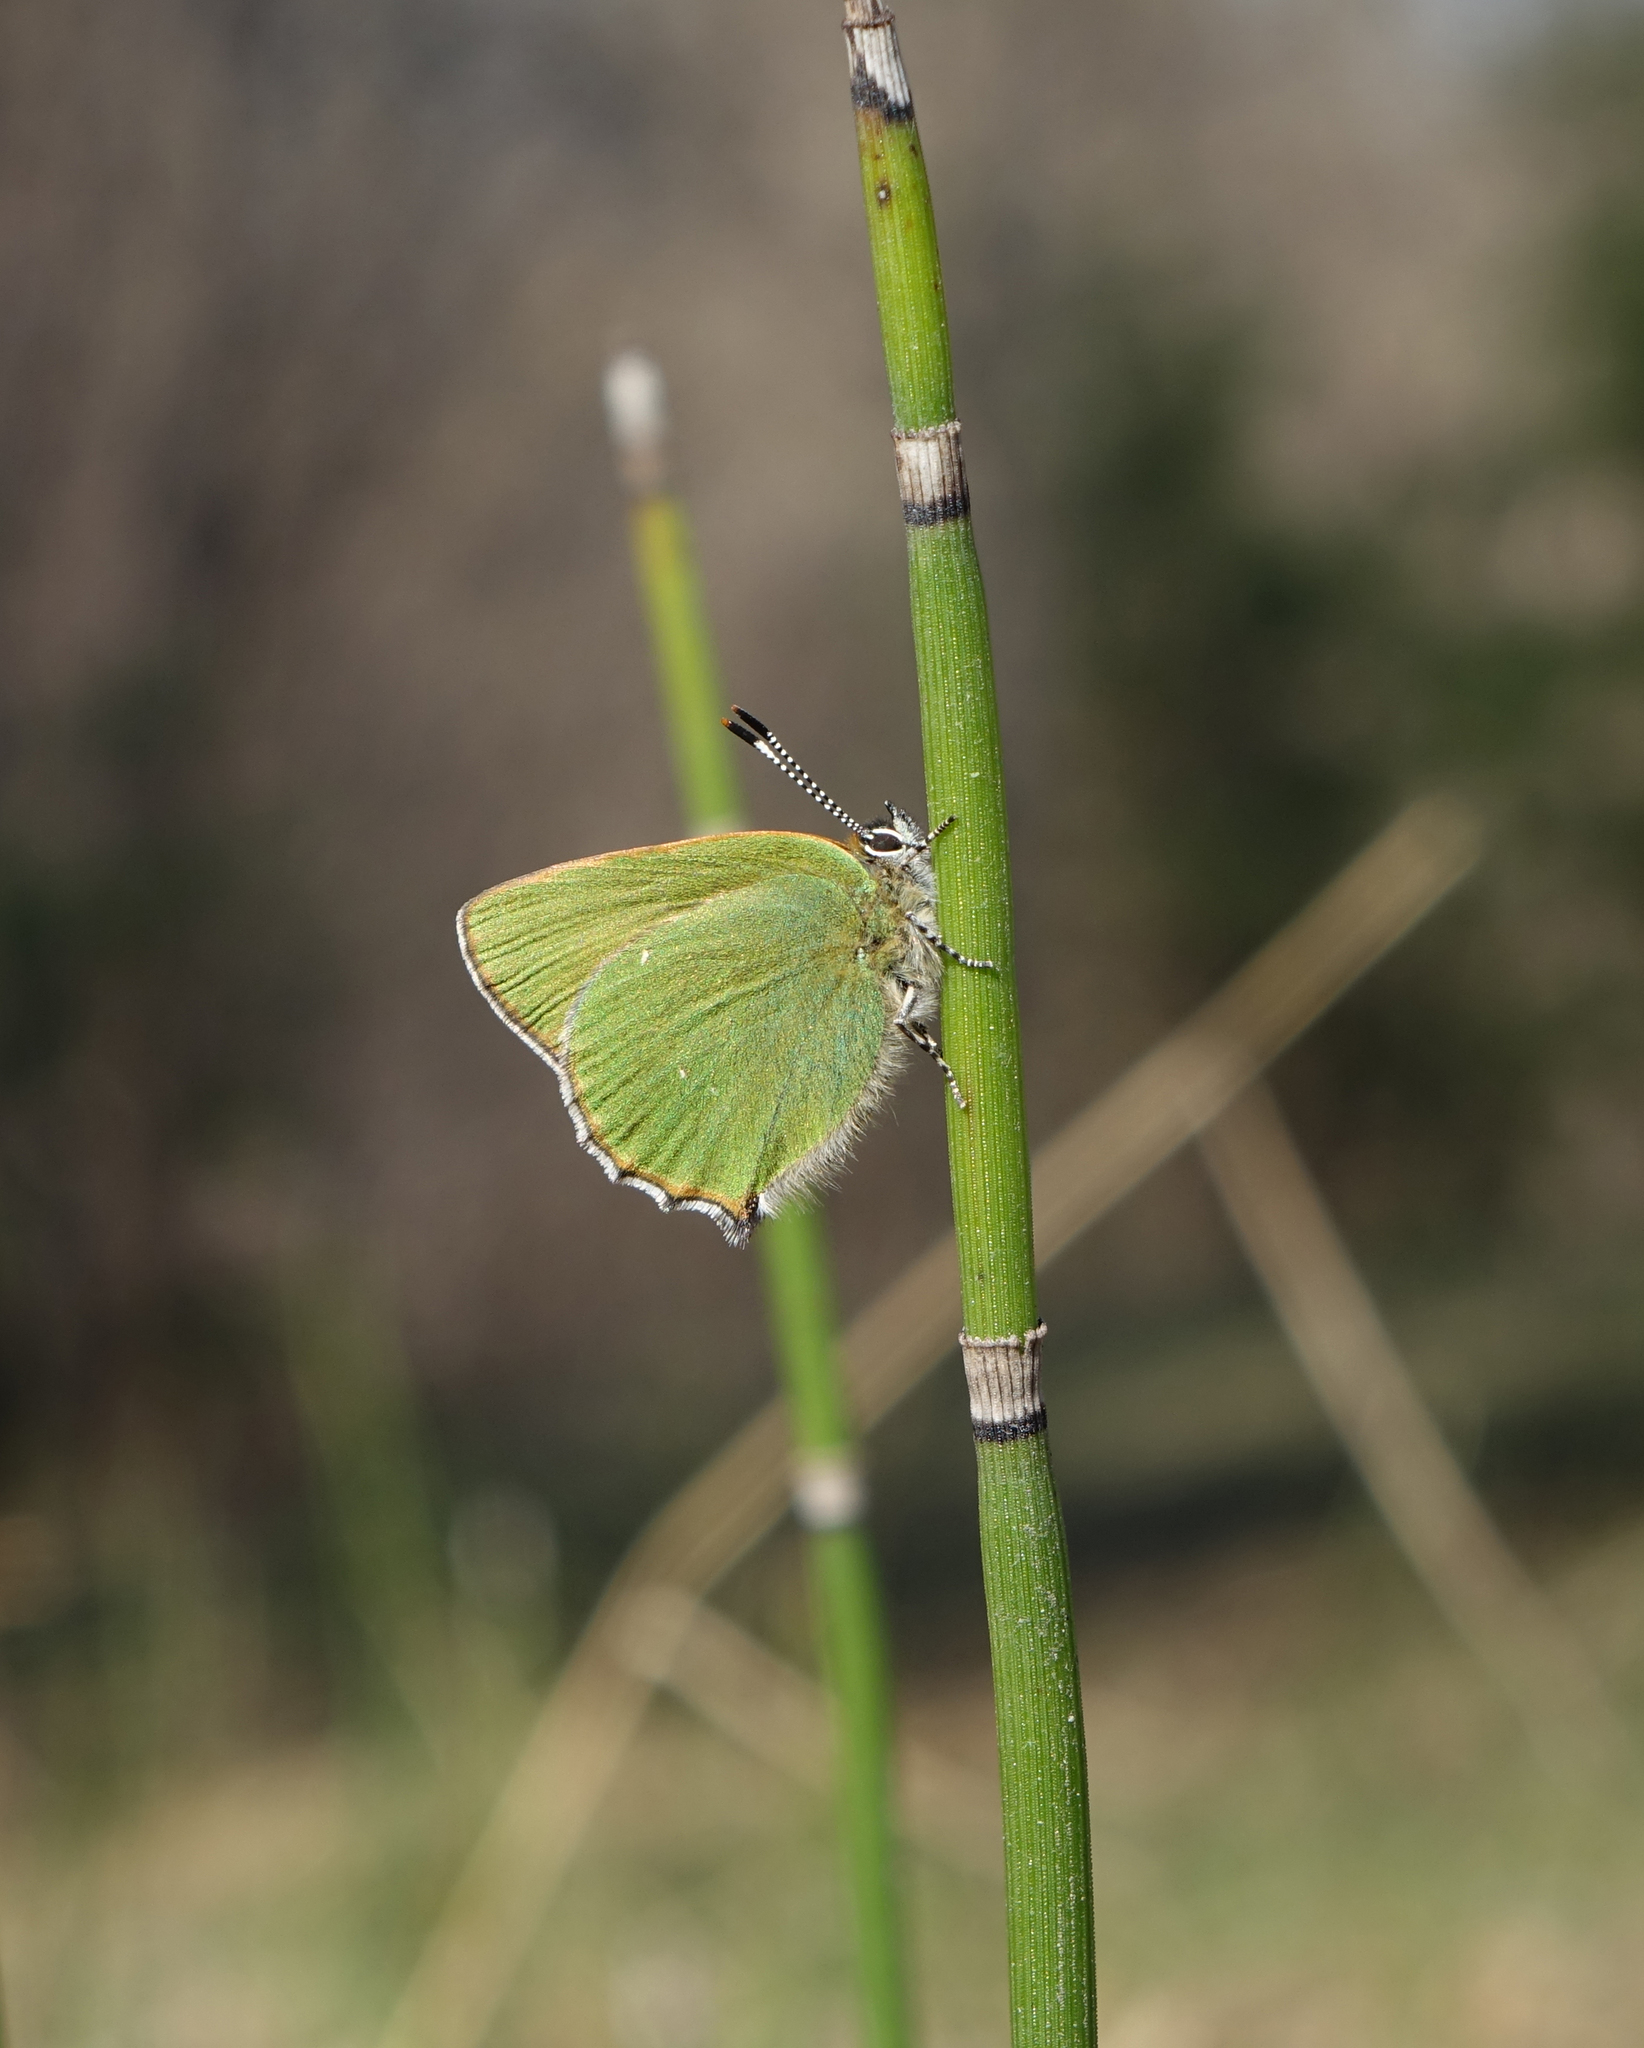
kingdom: Plantae
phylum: Tracheophyta
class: Polypodiopsida
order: Equisetales
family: Equisetaceae
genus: Equisetum
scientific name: Equisetum hyemale
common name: Rough horsetail
